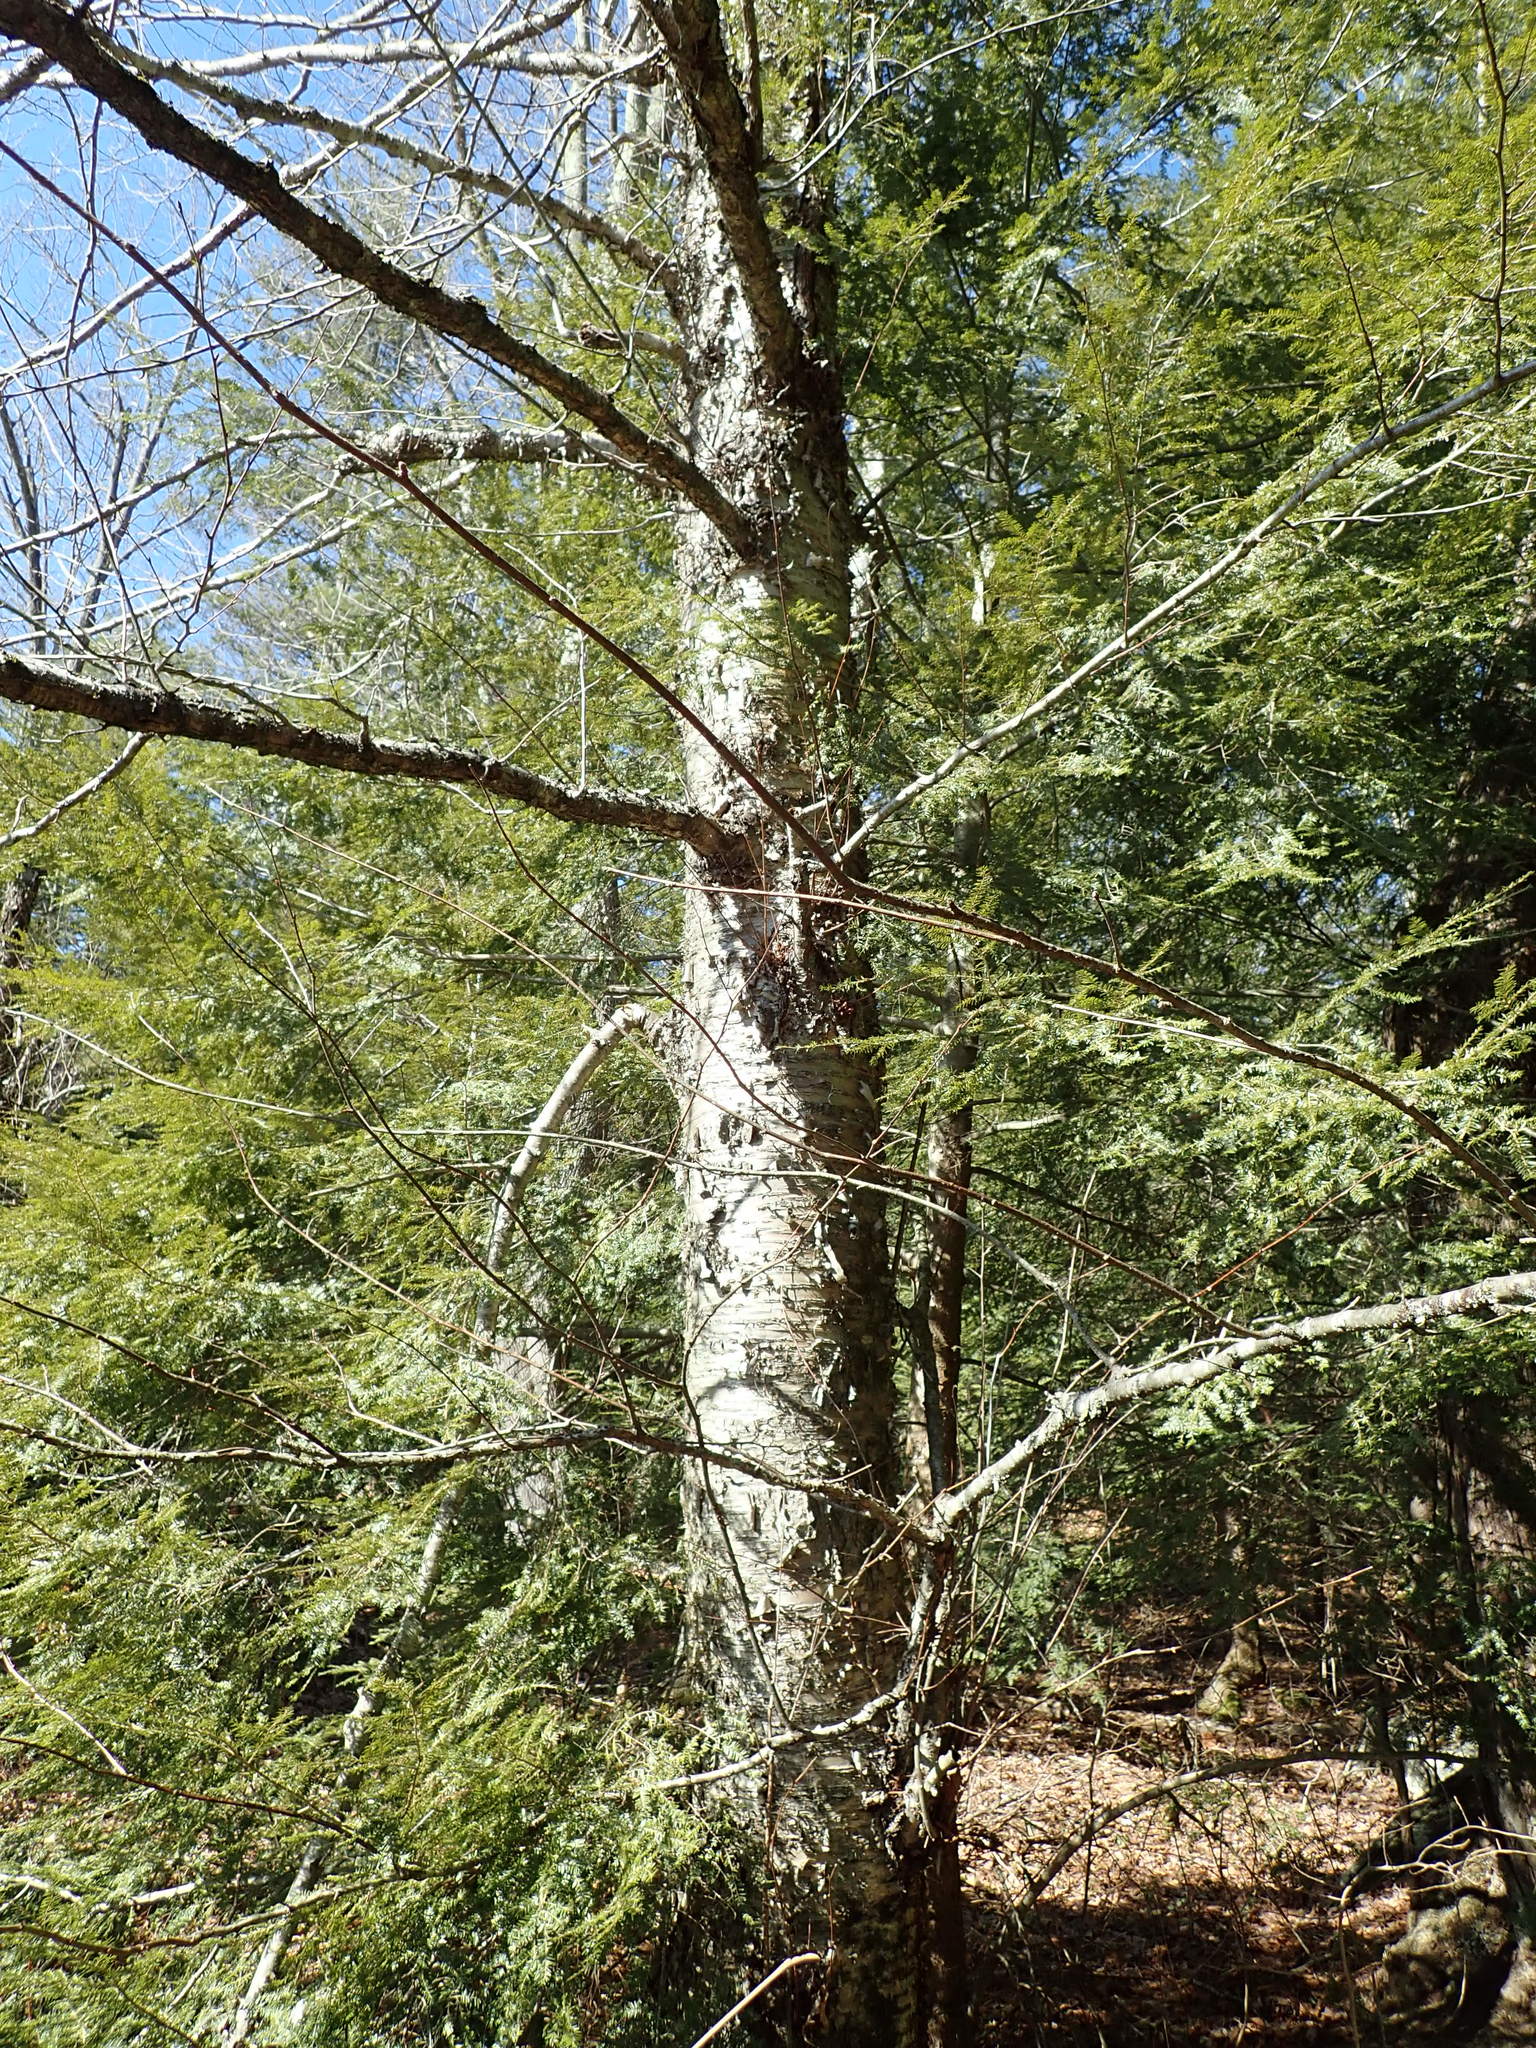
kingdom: Plantae
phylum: Tracheophyta
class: Magnoliopsida
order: Fagales
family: Betulaceae
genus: Betula
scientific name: Betula alleghaniensis
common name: Yellow birch
